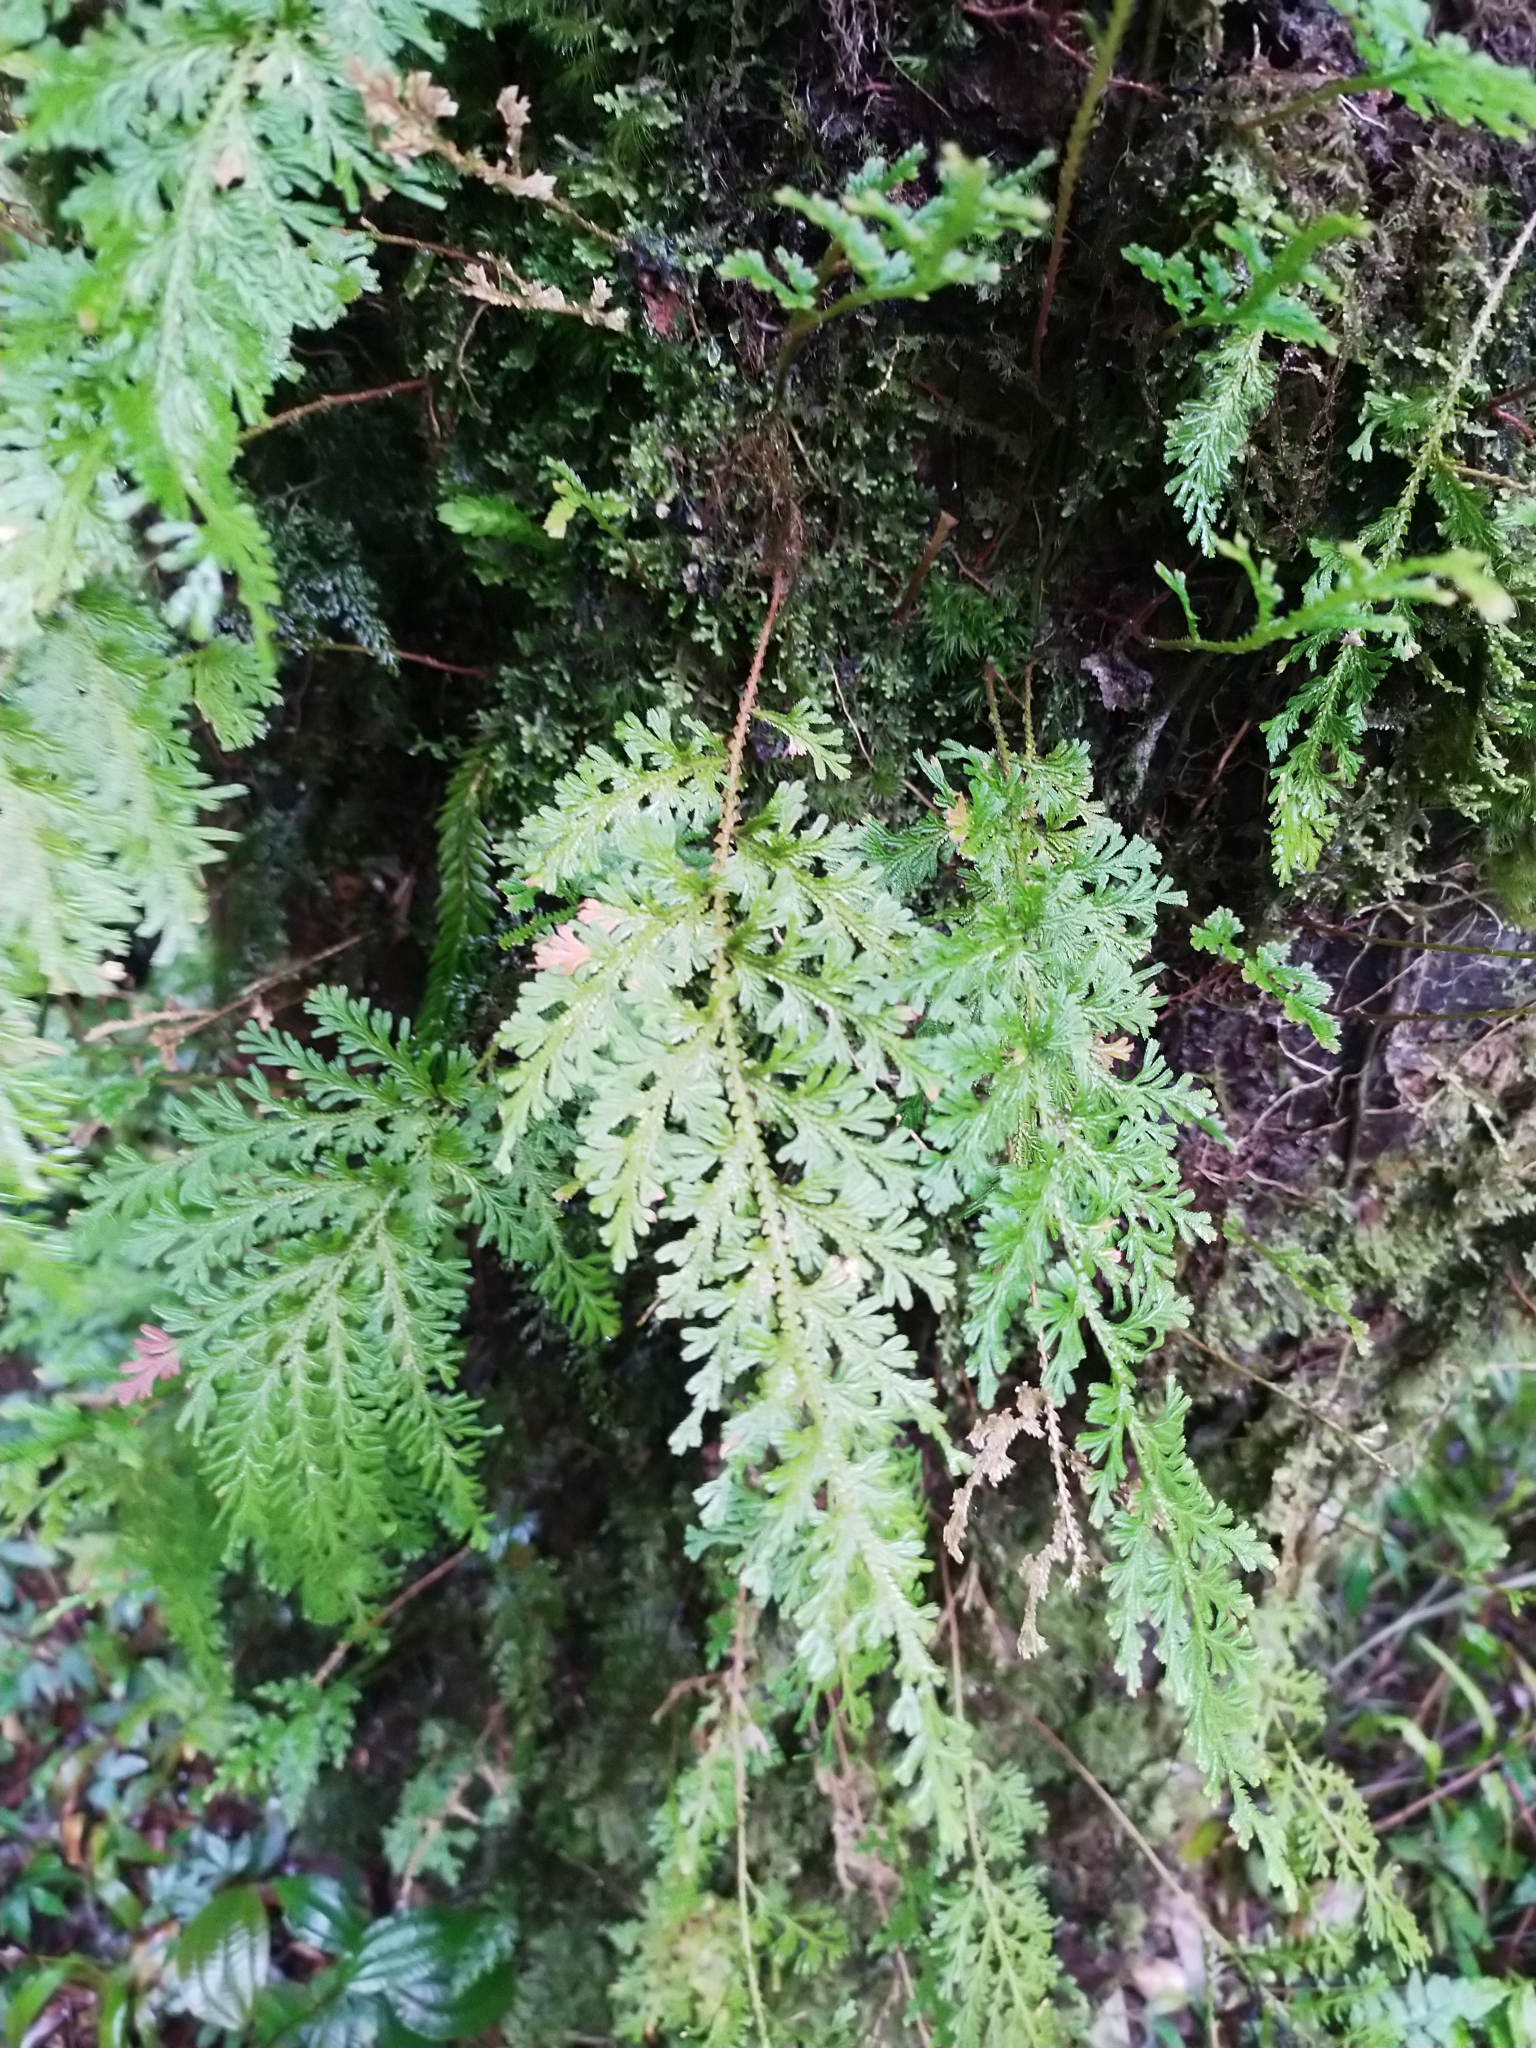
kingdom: Plantae
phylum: Tracheophyta
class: Lycopodiopsida
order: Selaginellales
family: Selaginellaceae
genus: Selaginella
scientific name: Selaginella moellendorffii
